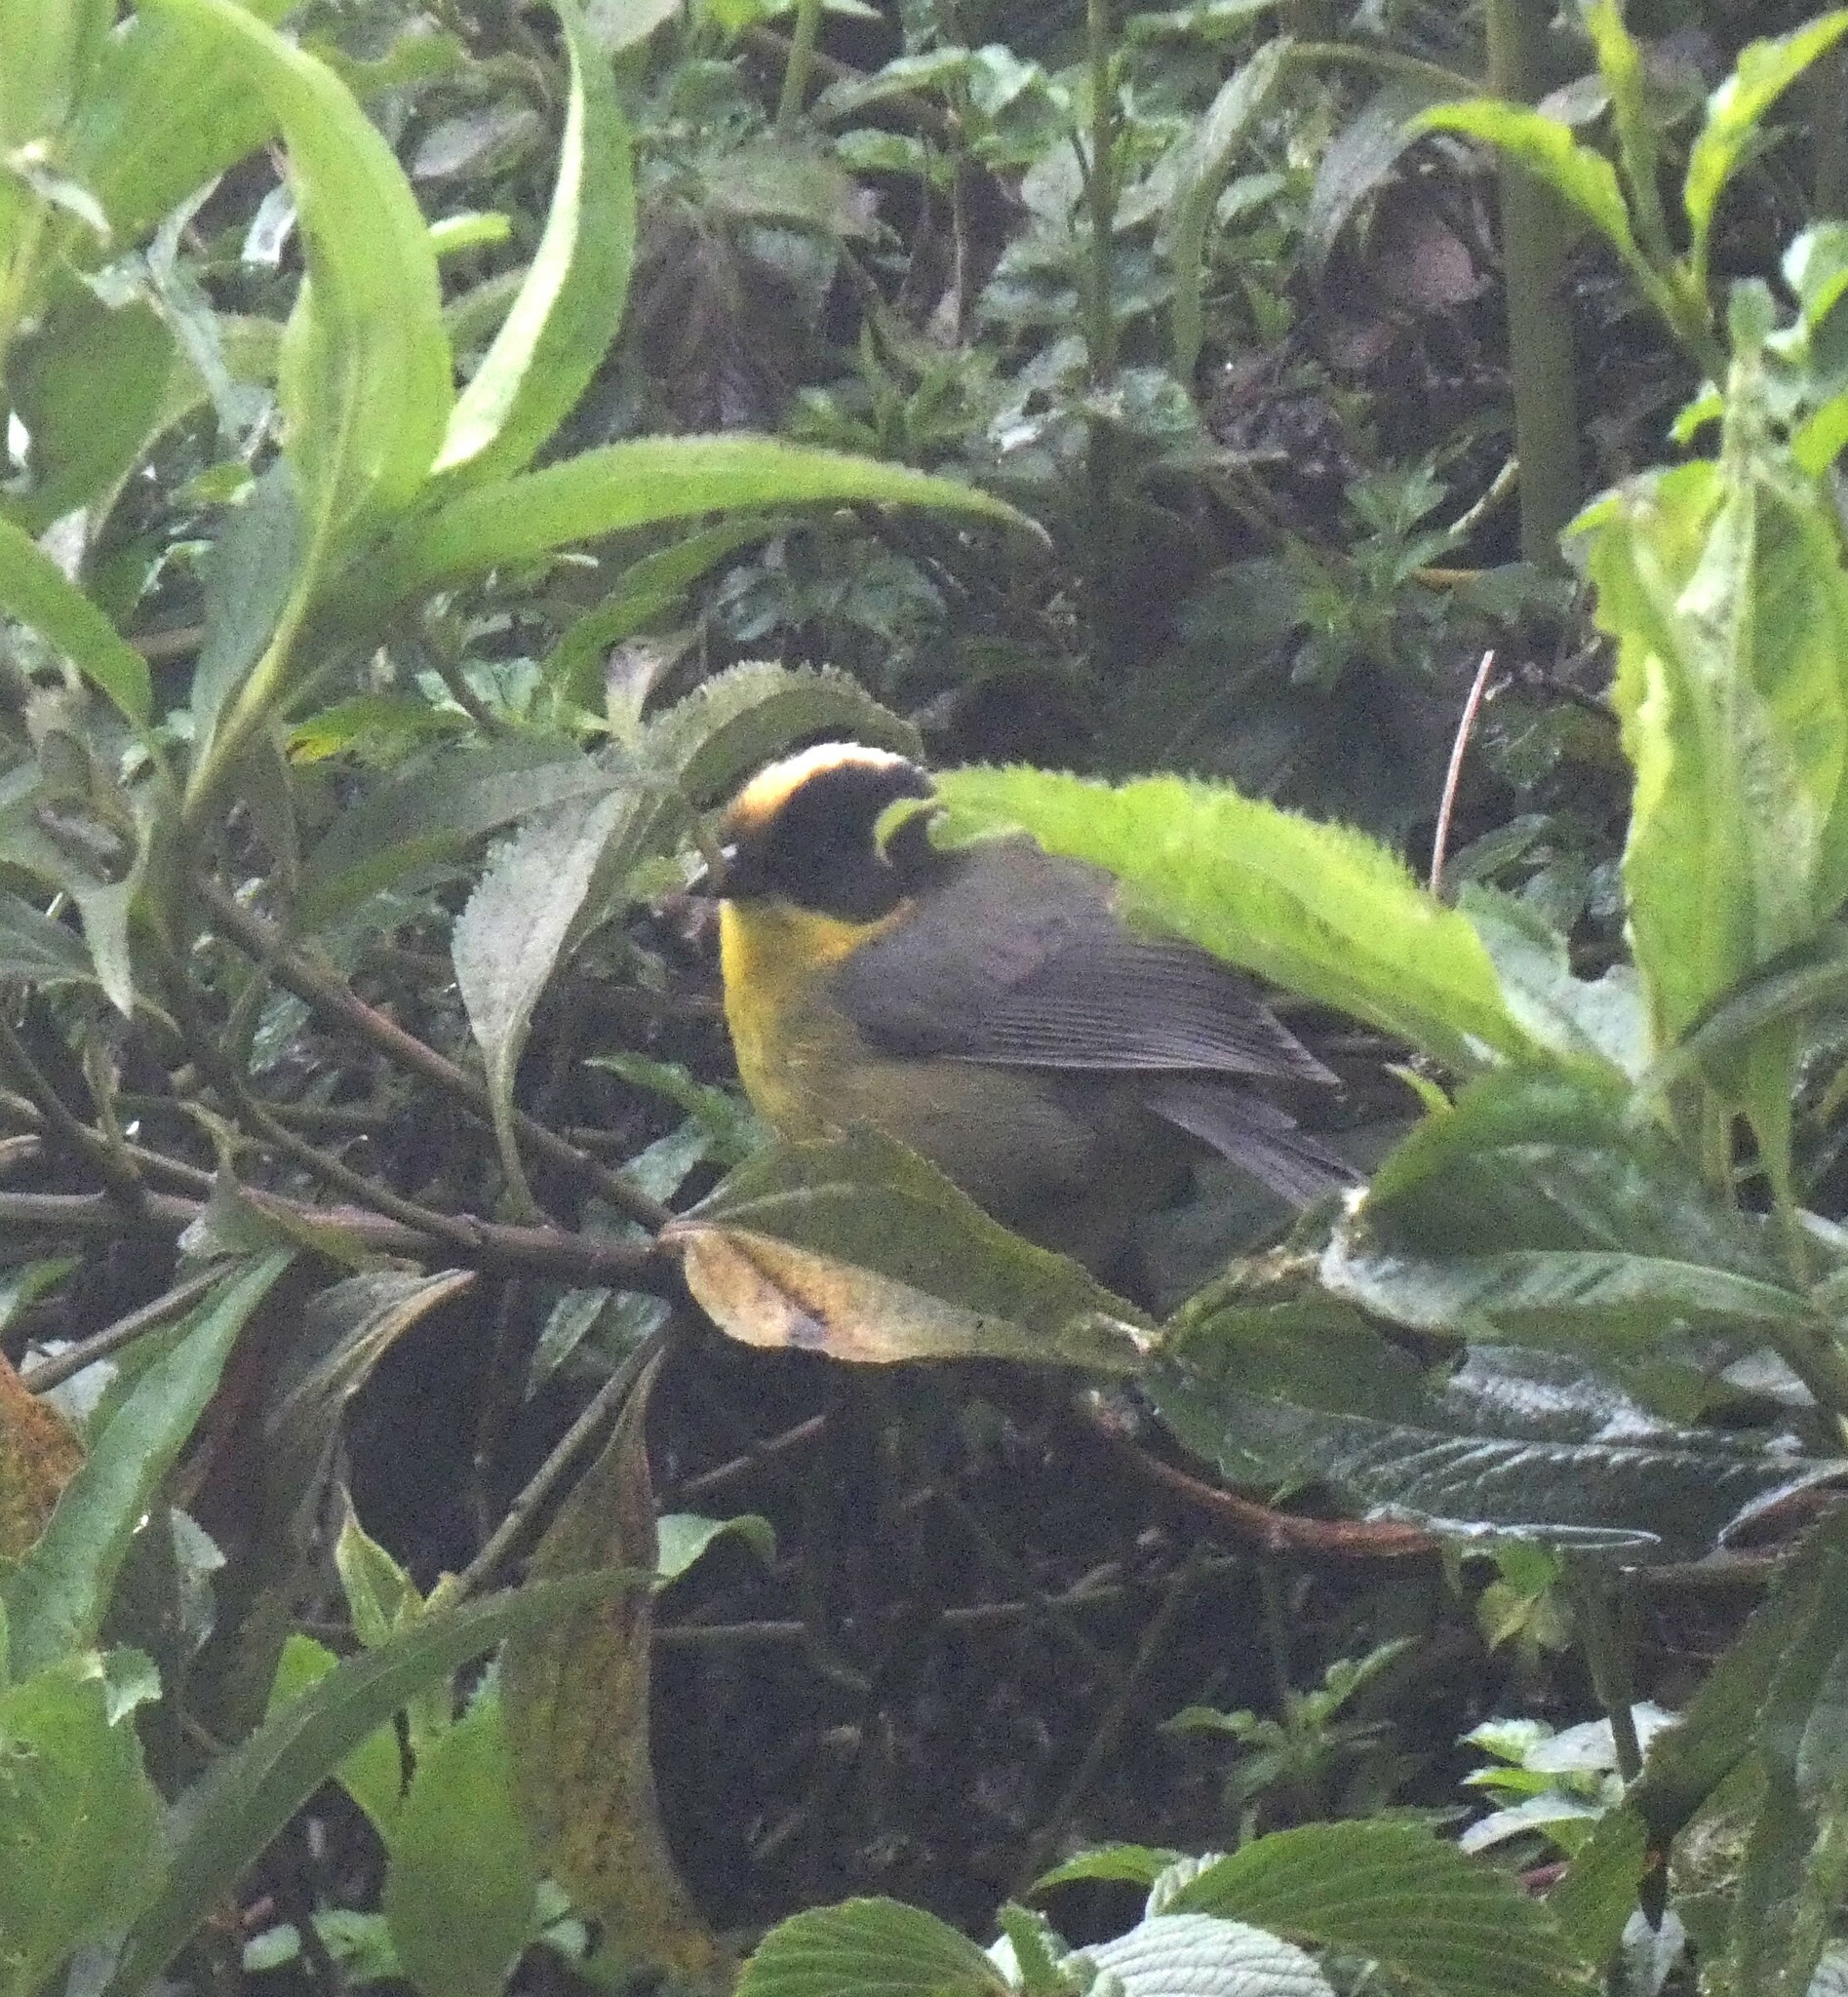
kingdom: Animalia
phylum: Chordata
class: Aves
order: Passeriformes
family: Passerellidae
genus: Atlapetes
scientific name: Atlapetes pallidinucha
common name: Pale-naped brushfinch
